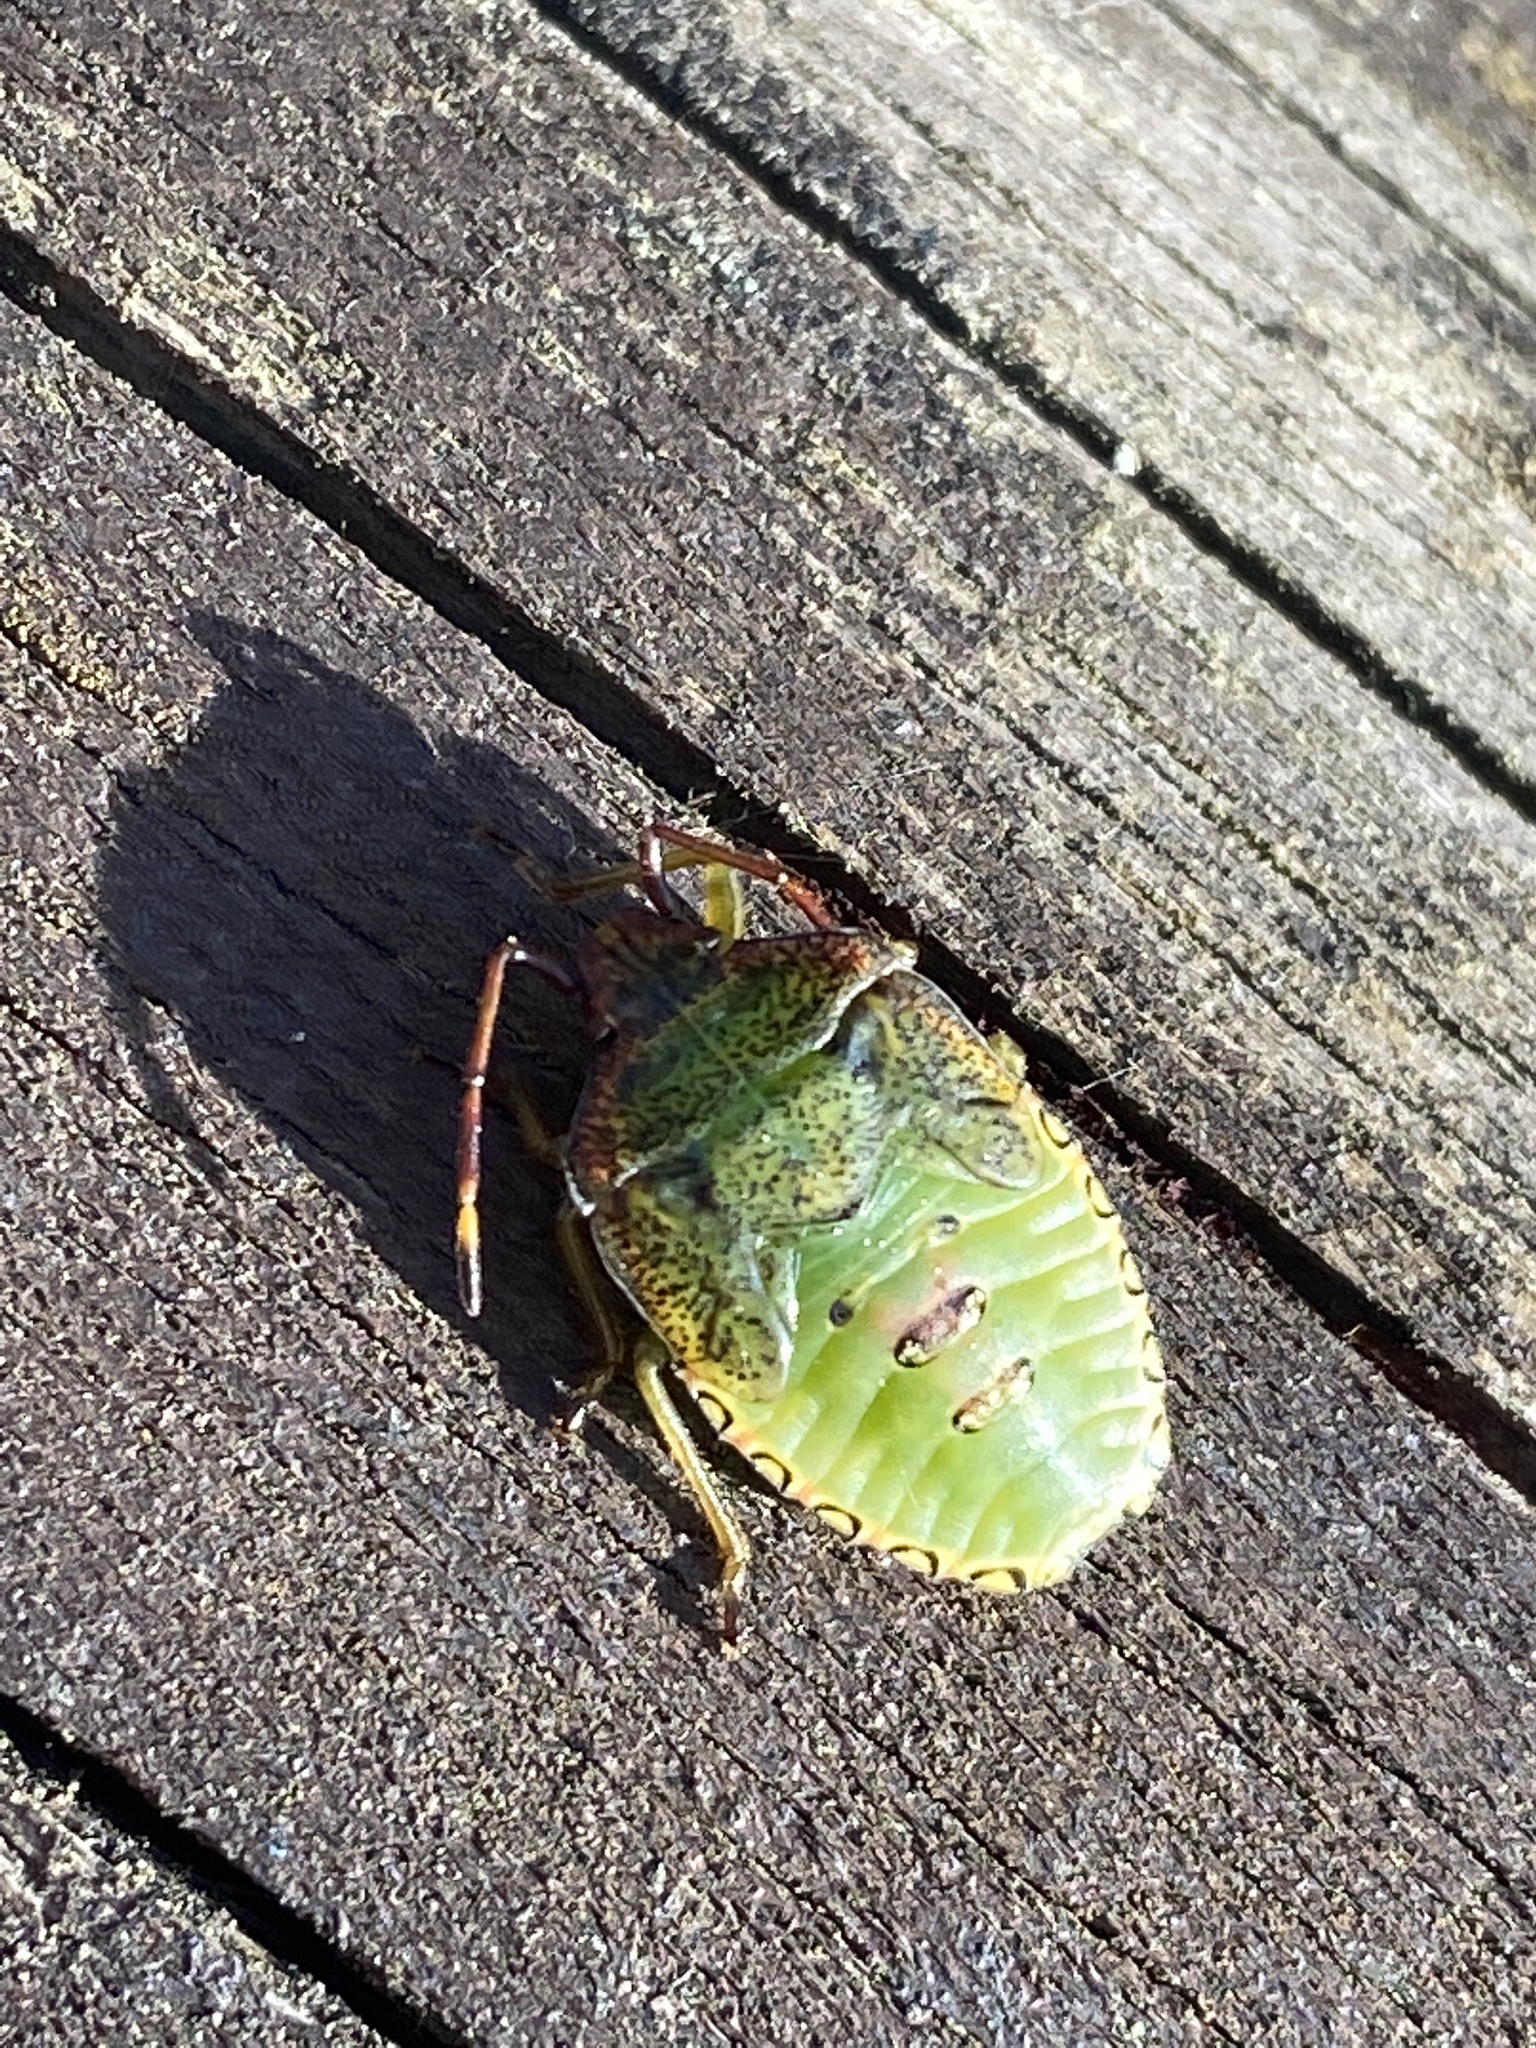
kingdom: Animalia
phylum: Arthropoda
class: Insecta
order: Hemiptera
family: Acanthosomatidae
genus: Acanthosoma
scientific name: Acanthosoma haemorrhoidale
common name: Hawthorn shieldbug
